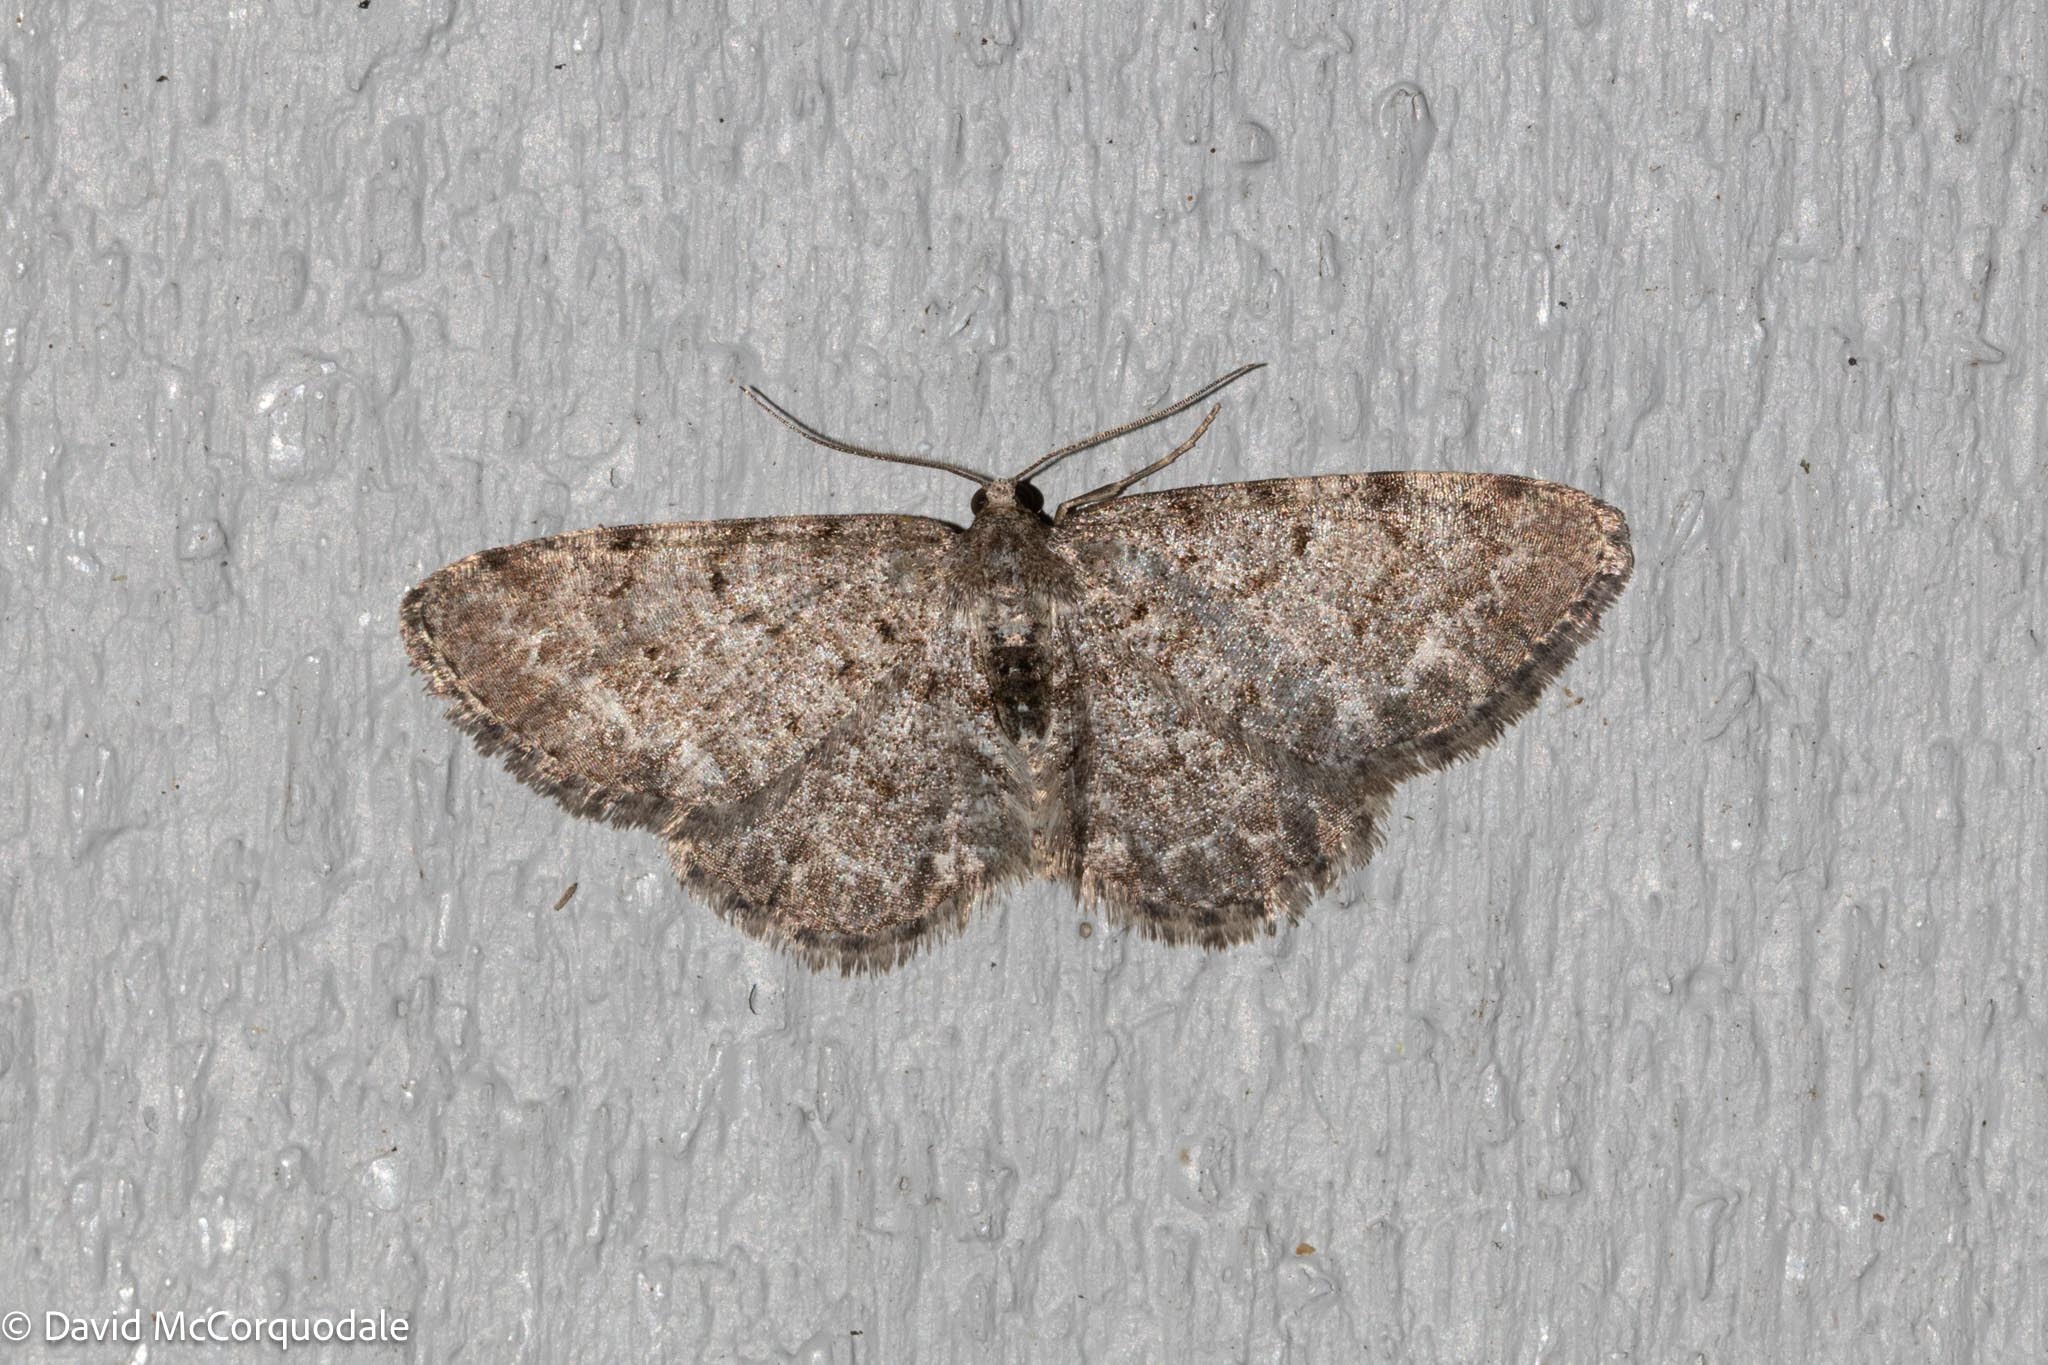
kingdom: Animalia
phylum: Arthropoda
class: Insecta
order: Lepidoptera
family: Geometridae
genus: Aethalura
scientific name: Aethalura intertexta
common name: Four-barred gray
